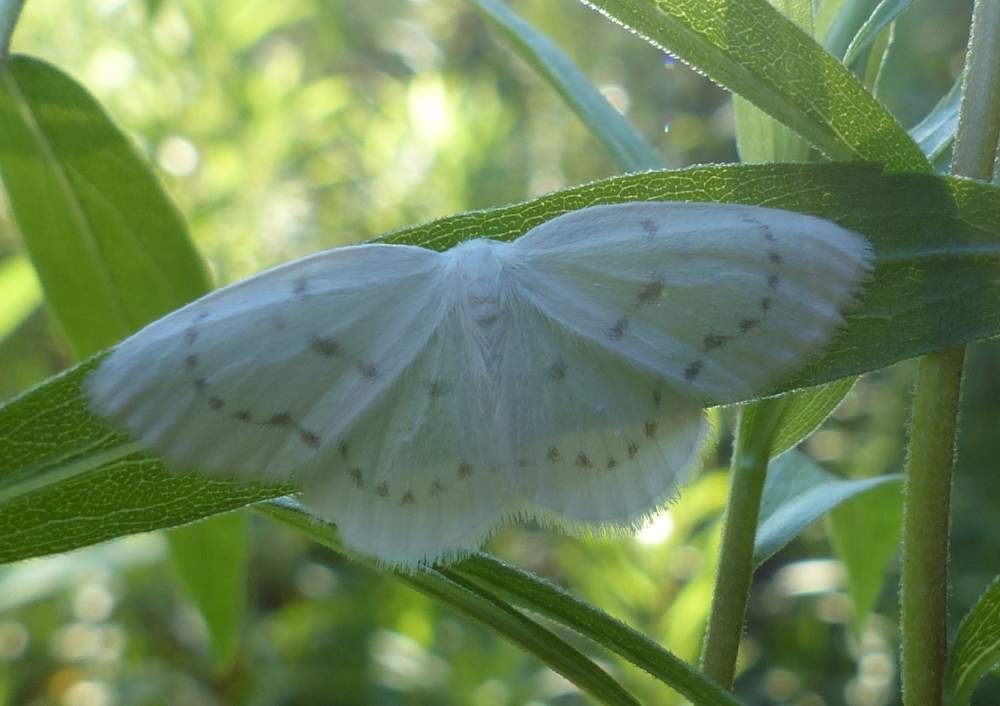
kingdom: Animalia
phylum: Arthropoda
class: Insecta
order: Lepidoptera
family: Drepanidae
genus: Eudeilinia
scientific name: Eudeilinia herminiata
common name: Northern eudeilinea moth
